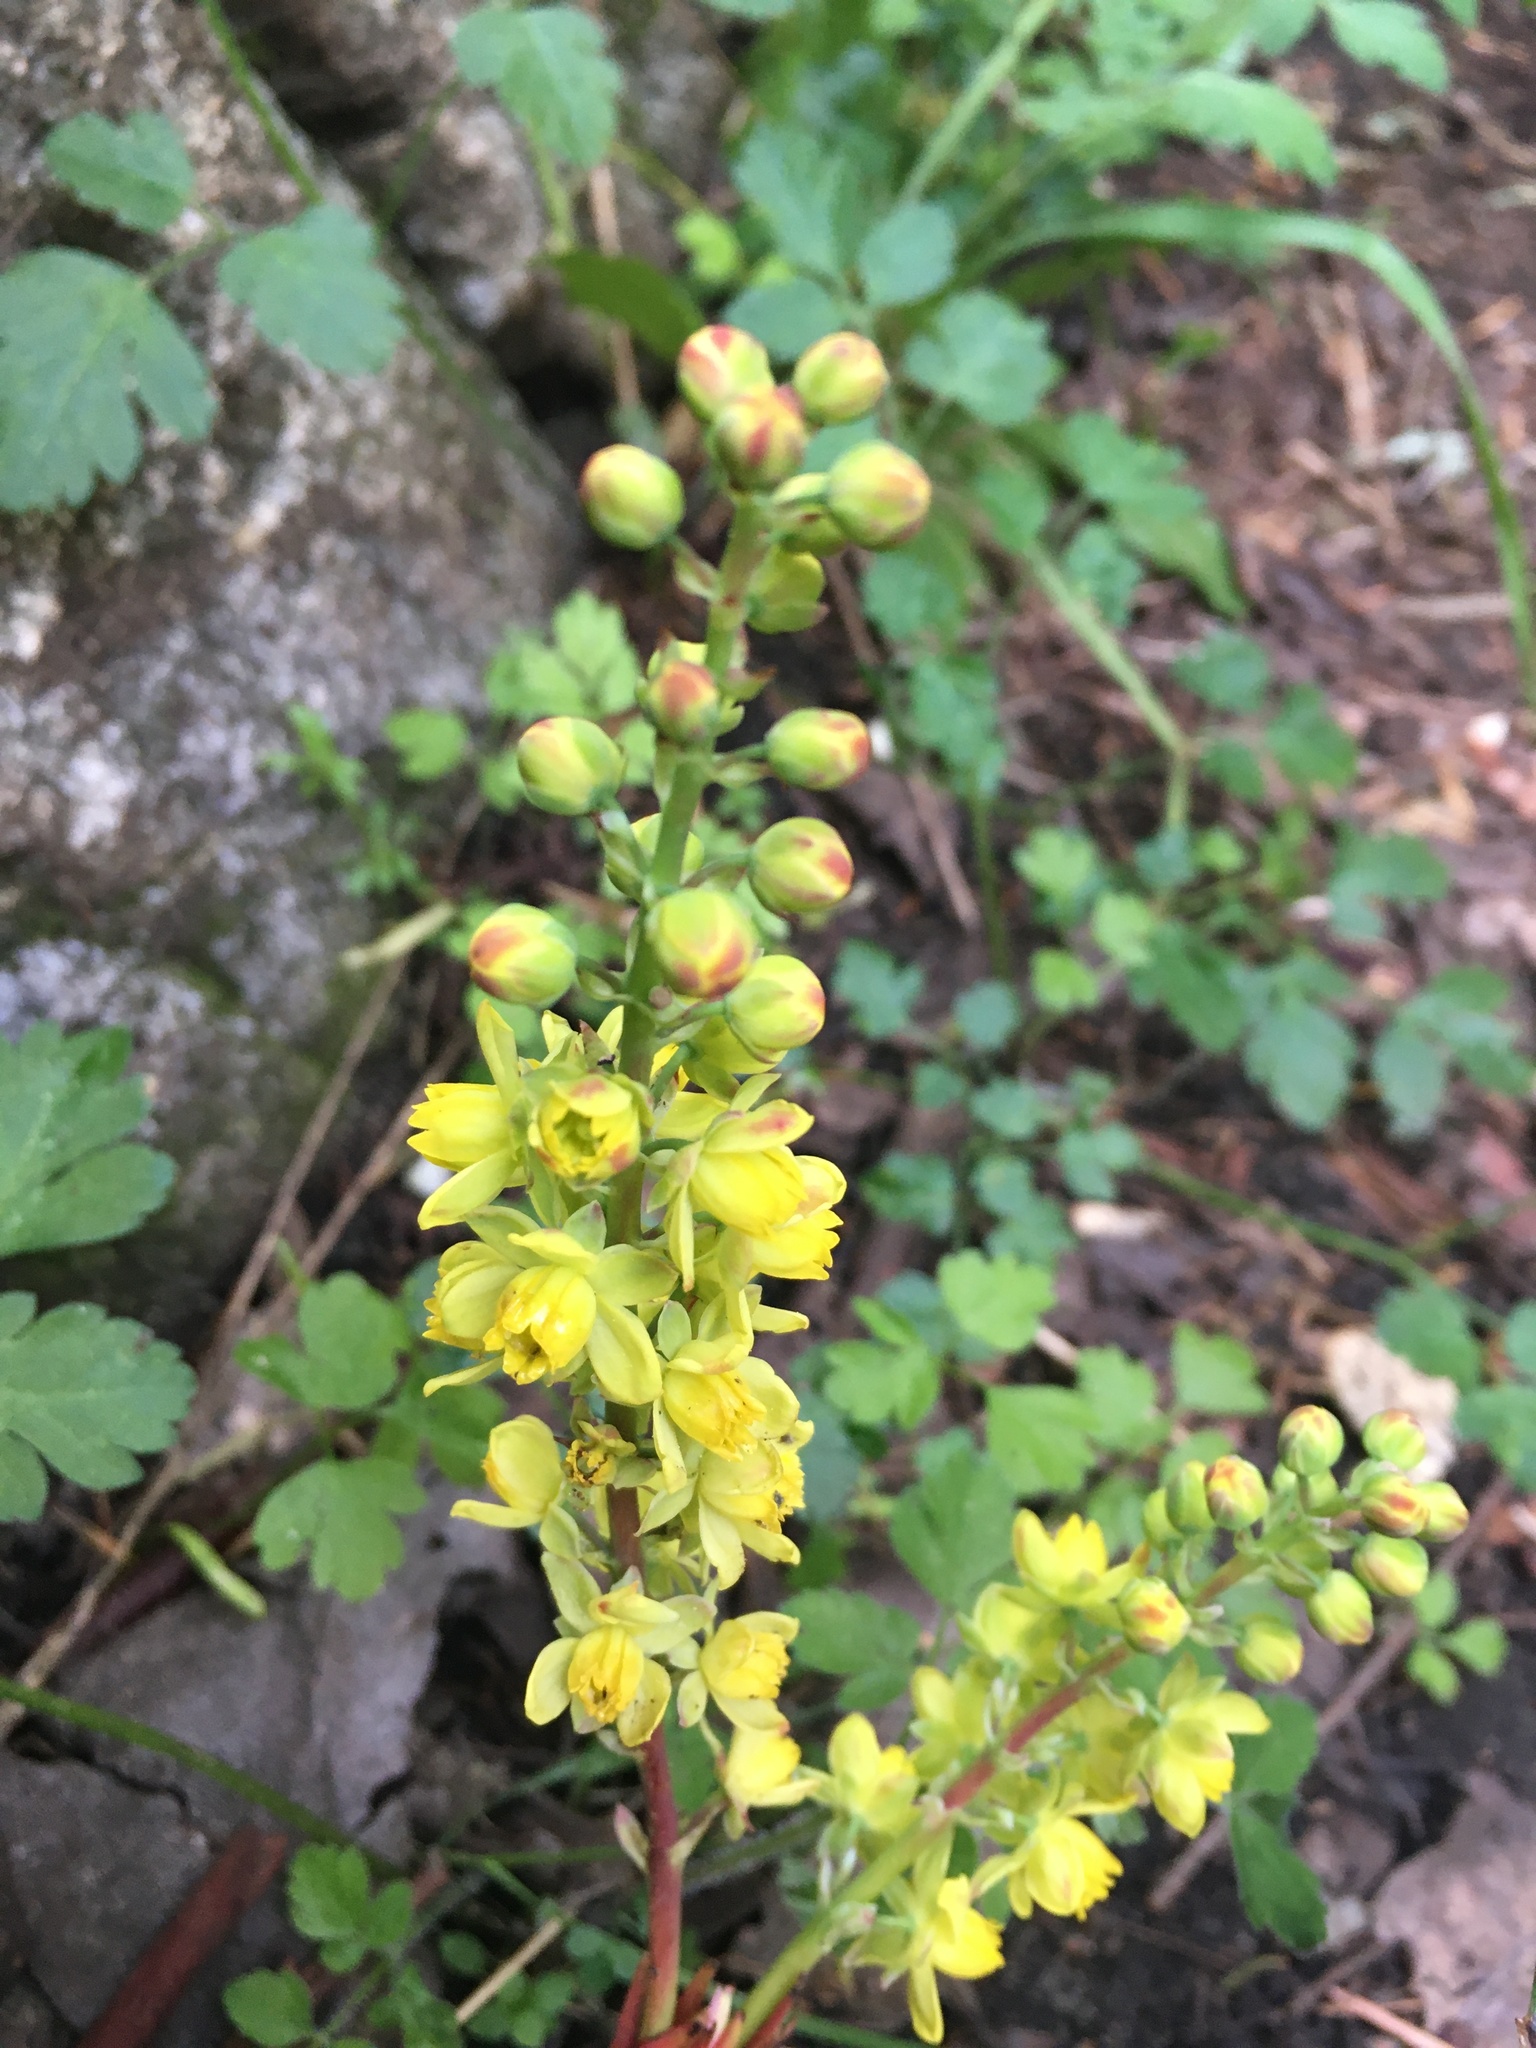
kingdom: Plantae
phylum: Tracheophyta
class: Magnoliopsida
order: Ranunculales
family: Berberidaceae
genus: Mahonia
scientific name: Mahonia nervosa
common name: Cascade oregon-grape
